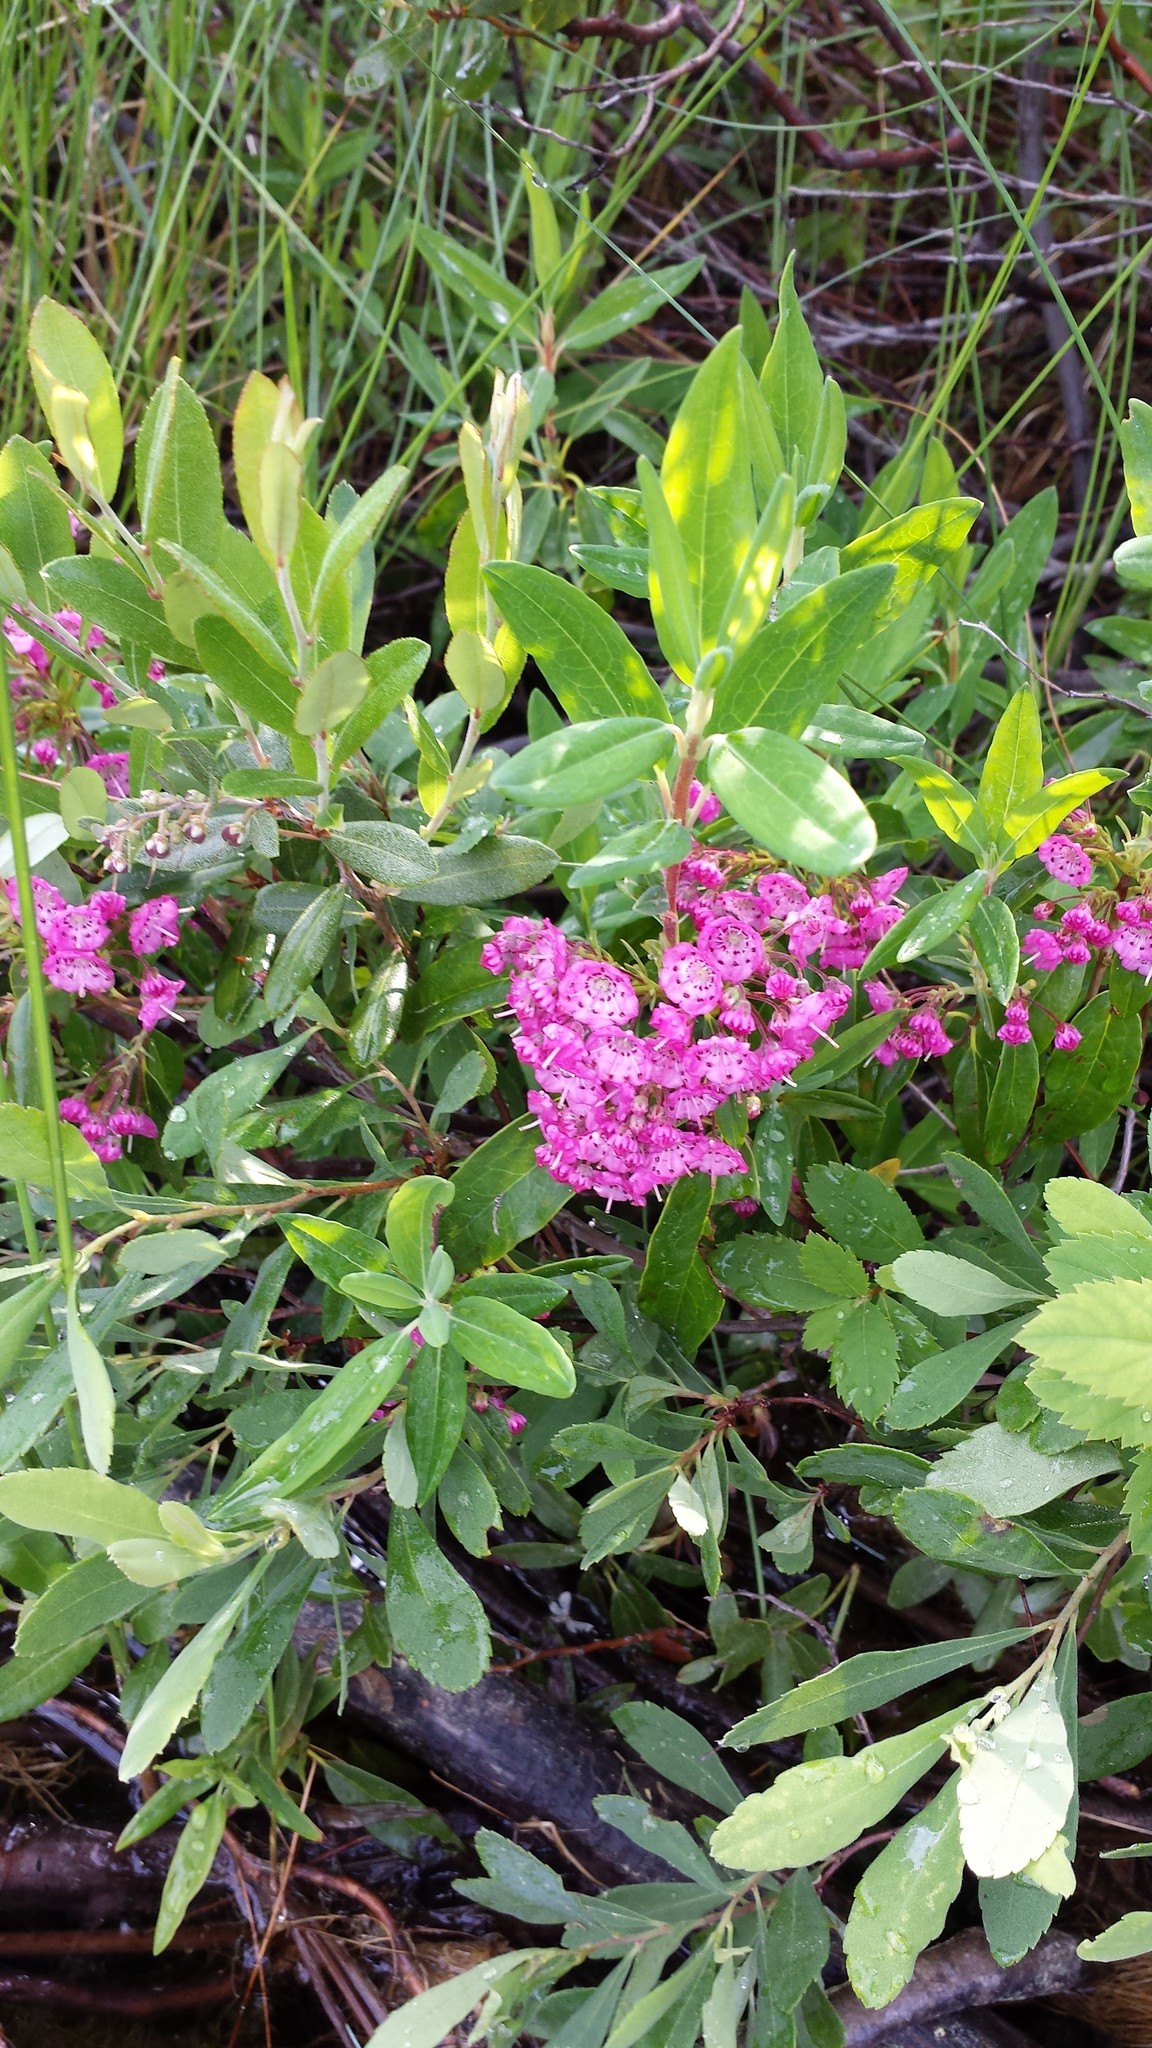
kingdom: Plantae
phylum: Tracheophyta
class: Magnoliopsida
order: Ericales
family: Ericaceae
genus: Kalmia
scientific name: Kalmia angustifolia
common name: Sheep-laurel
